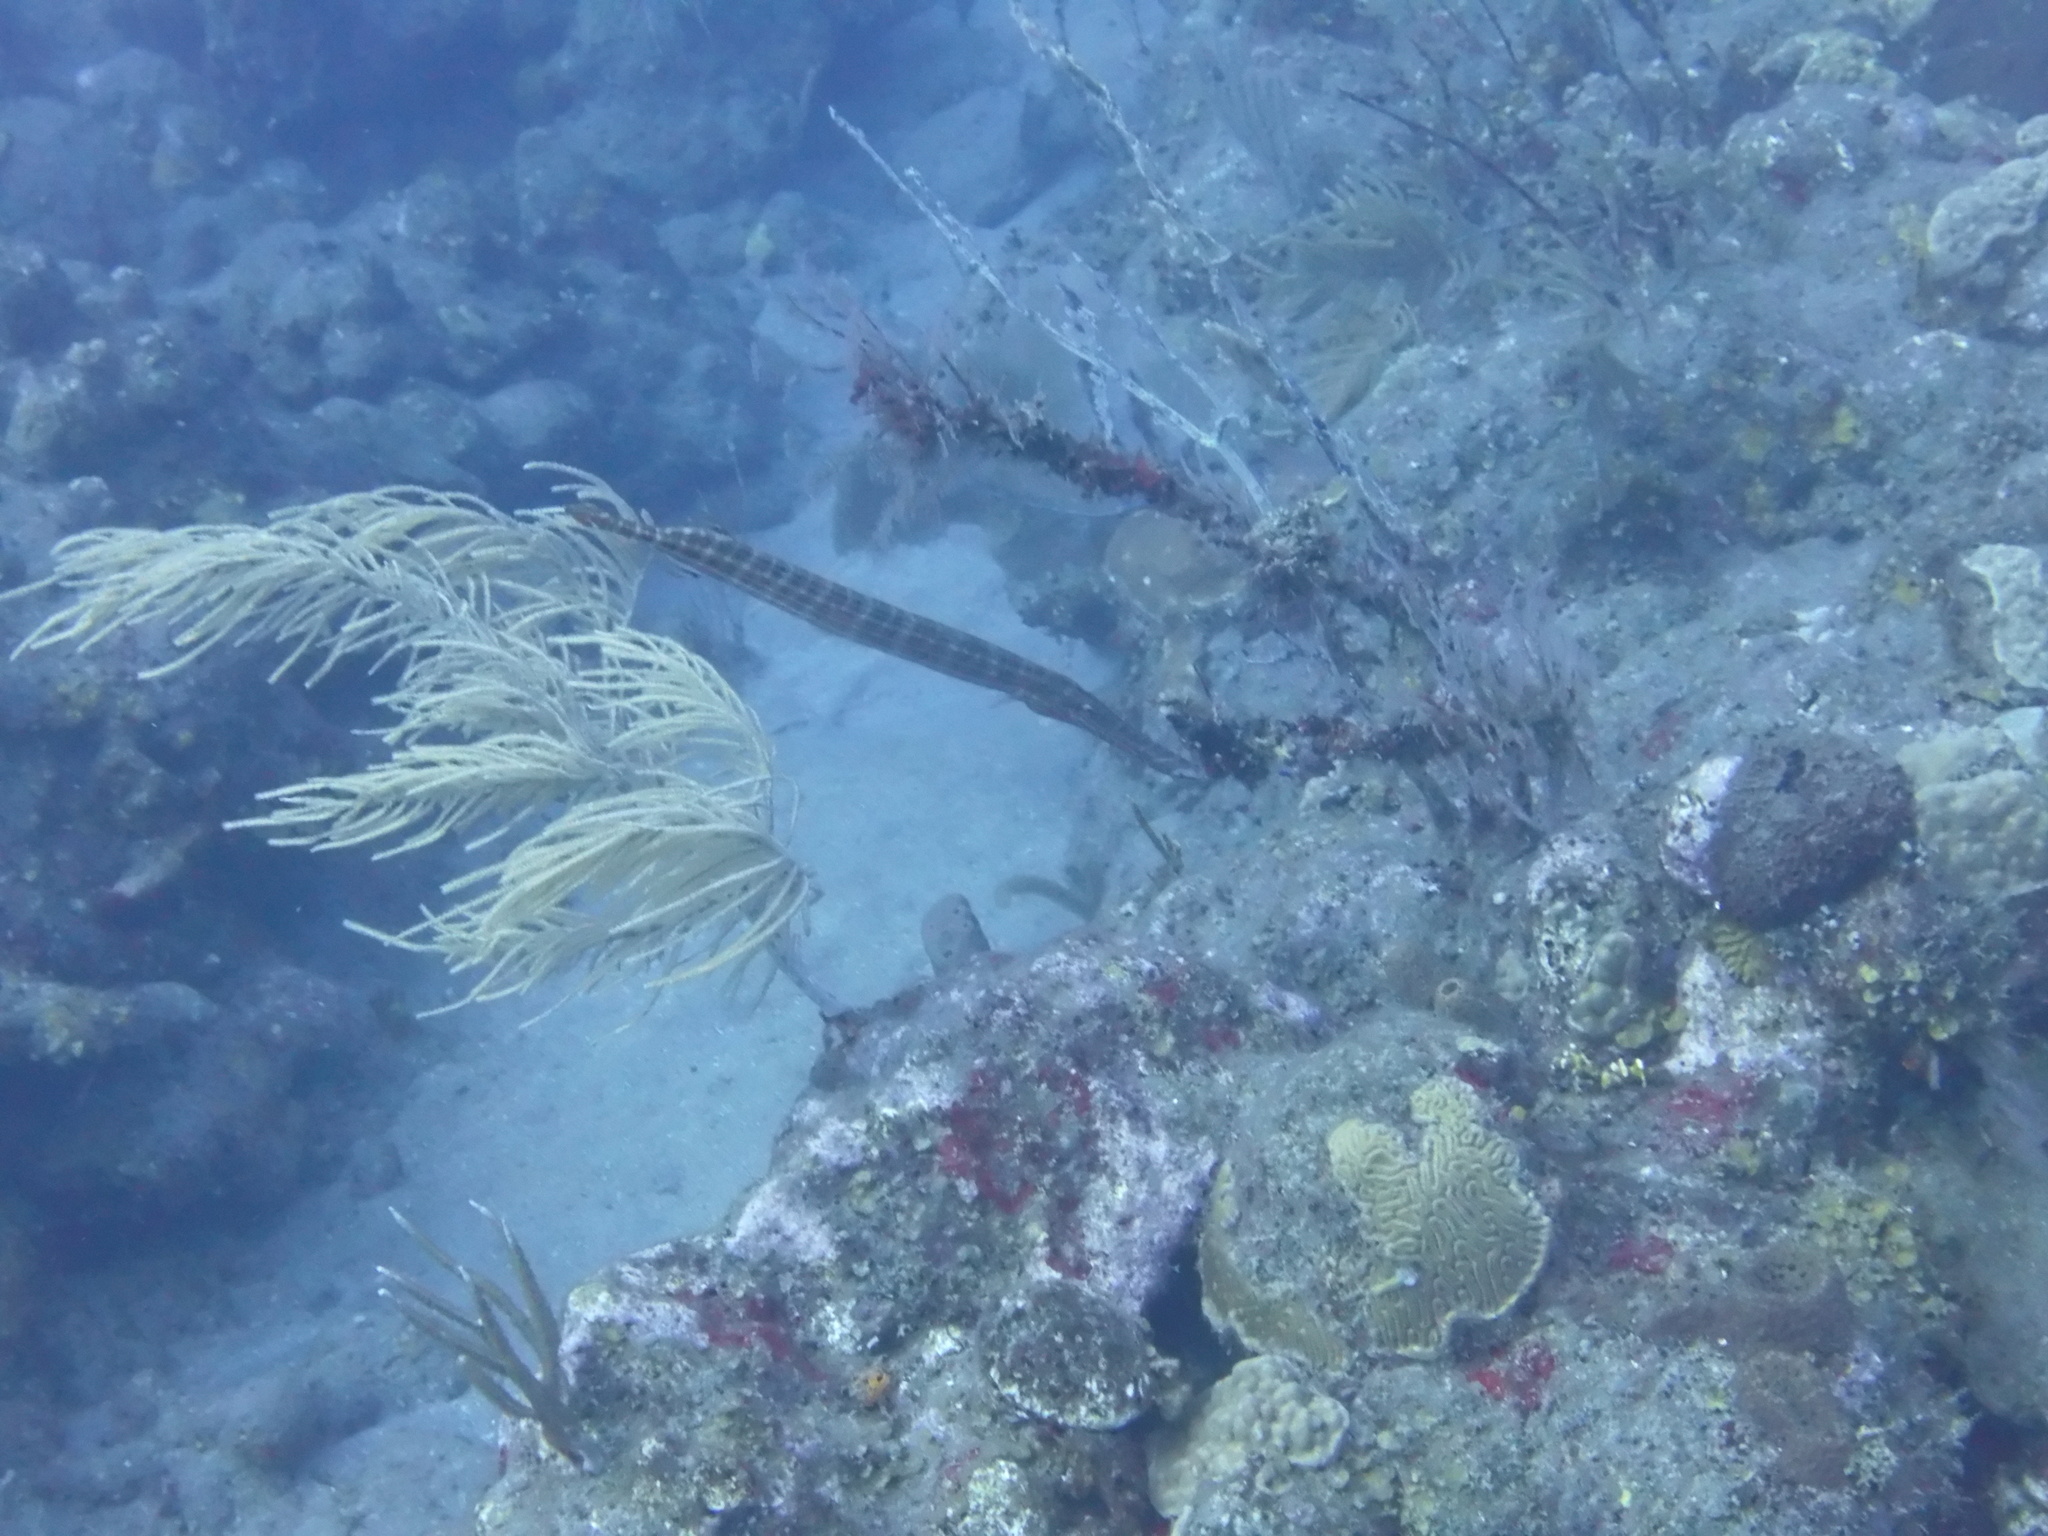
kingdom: Animalia
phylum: Chordata
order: Syngnathiformes
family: Aulostomidae
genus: Aulostomus
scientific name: Aulostomus maculatus
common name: West atlantic trumpetfish
